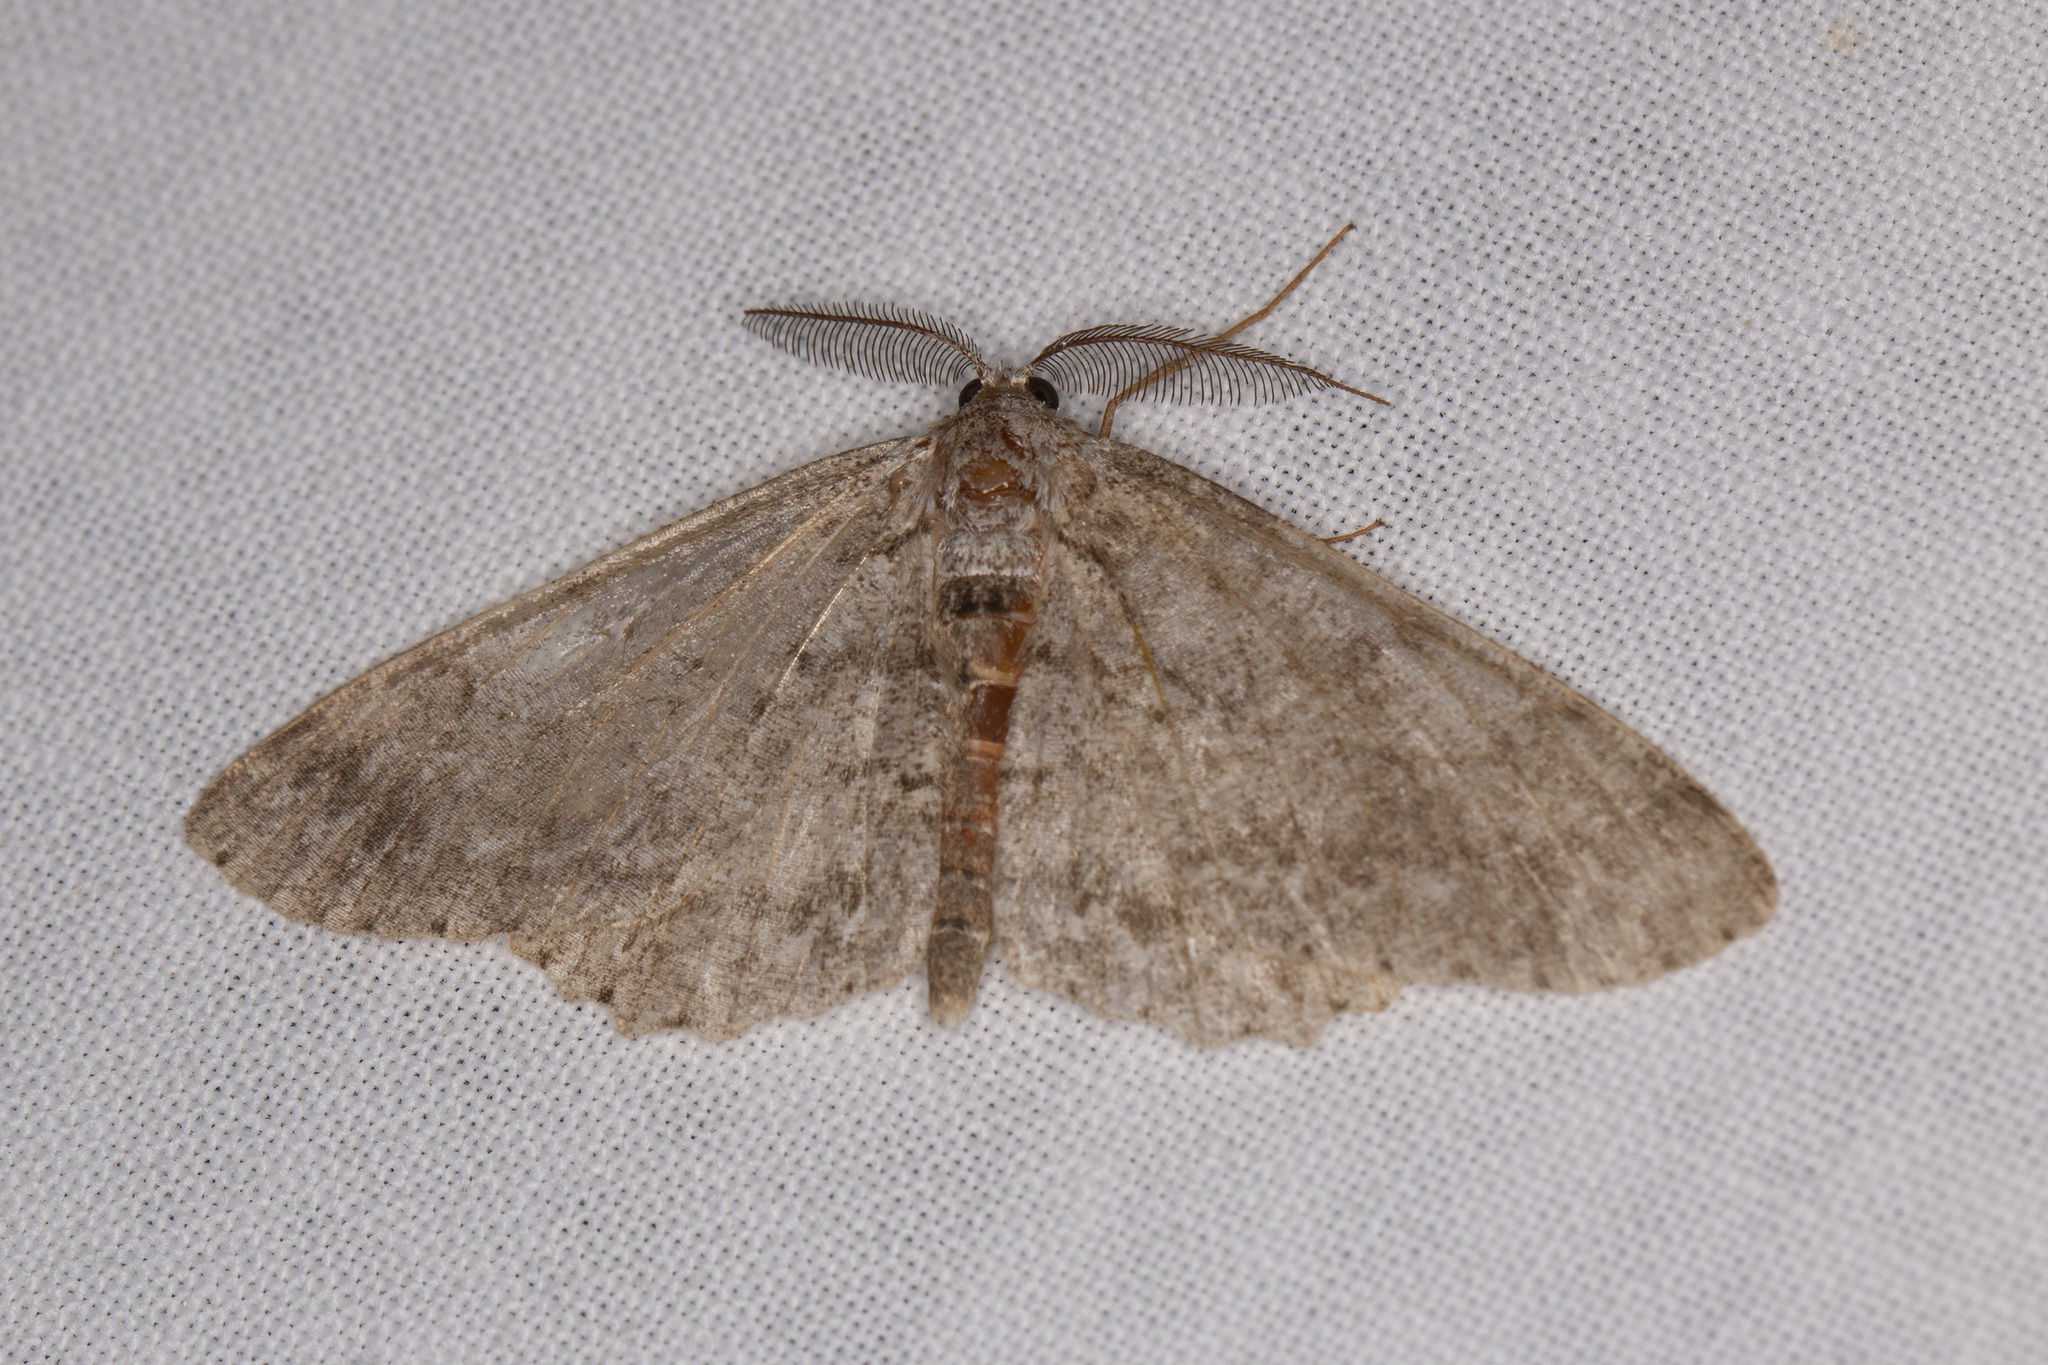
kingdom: Animalia
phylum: Arthropoda
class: Insecta
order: Lepidoptera
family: Geometridae
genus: Hypomecis
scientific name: Hypomecis punctinalis
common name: Pale oak beauty
